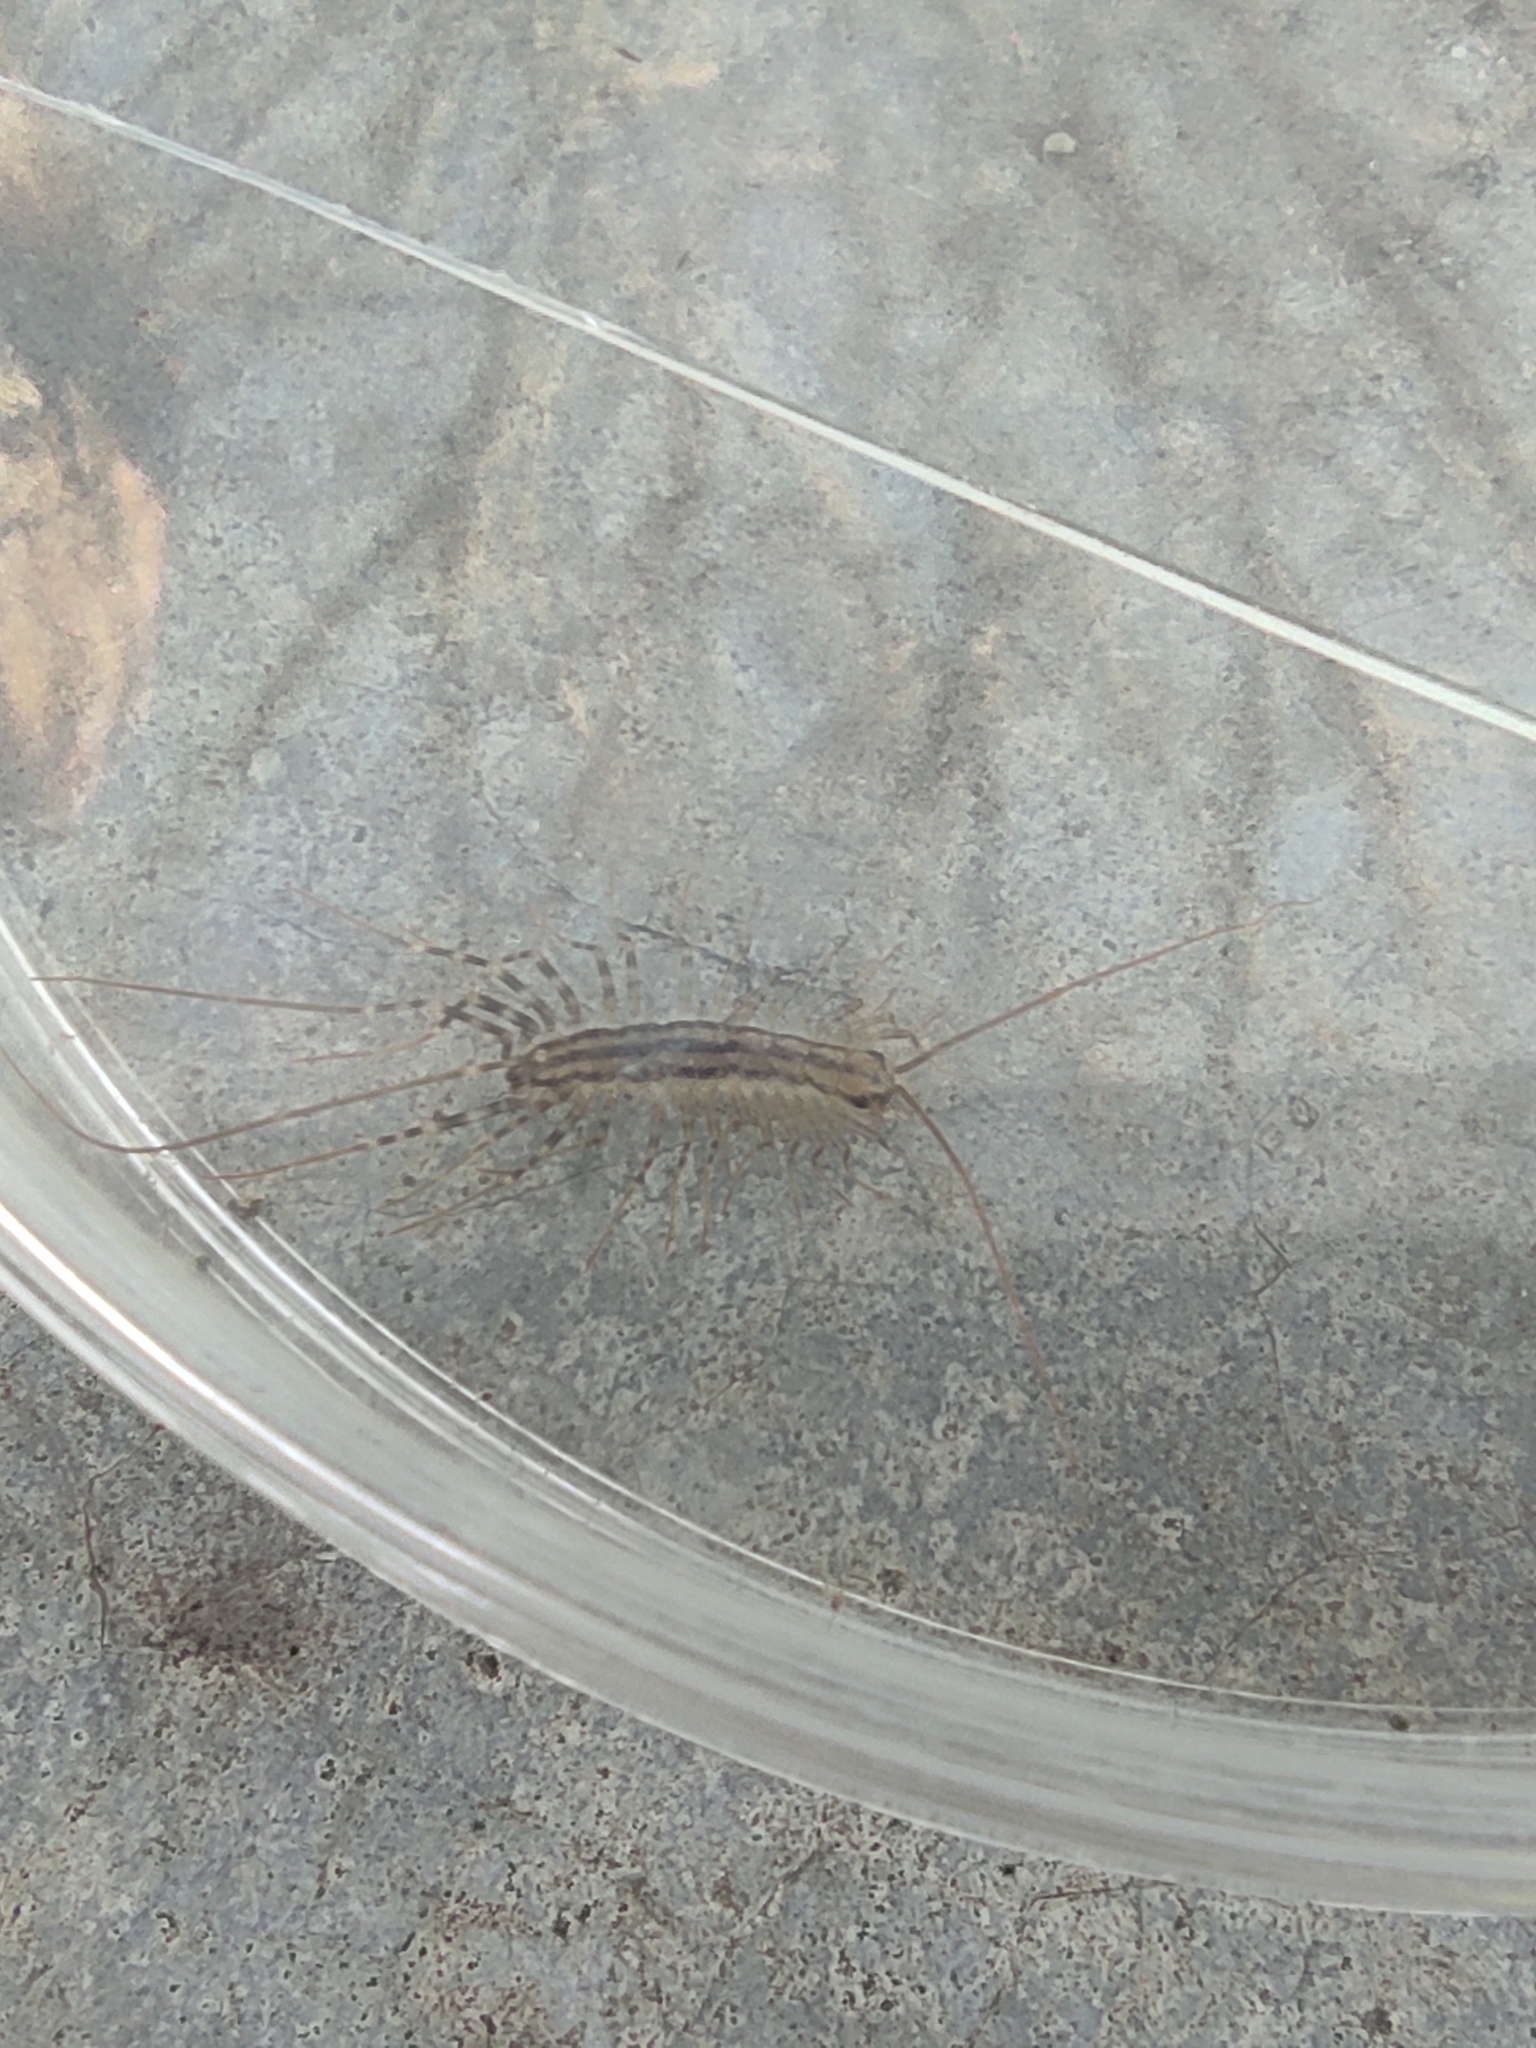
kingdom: Animalia
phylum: Arthropoda
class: Chilopoda
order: Scutigeromorpha
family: Scutigeridae
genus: Scutigera
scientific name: Scutigera coleoptrata
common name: House centipede
